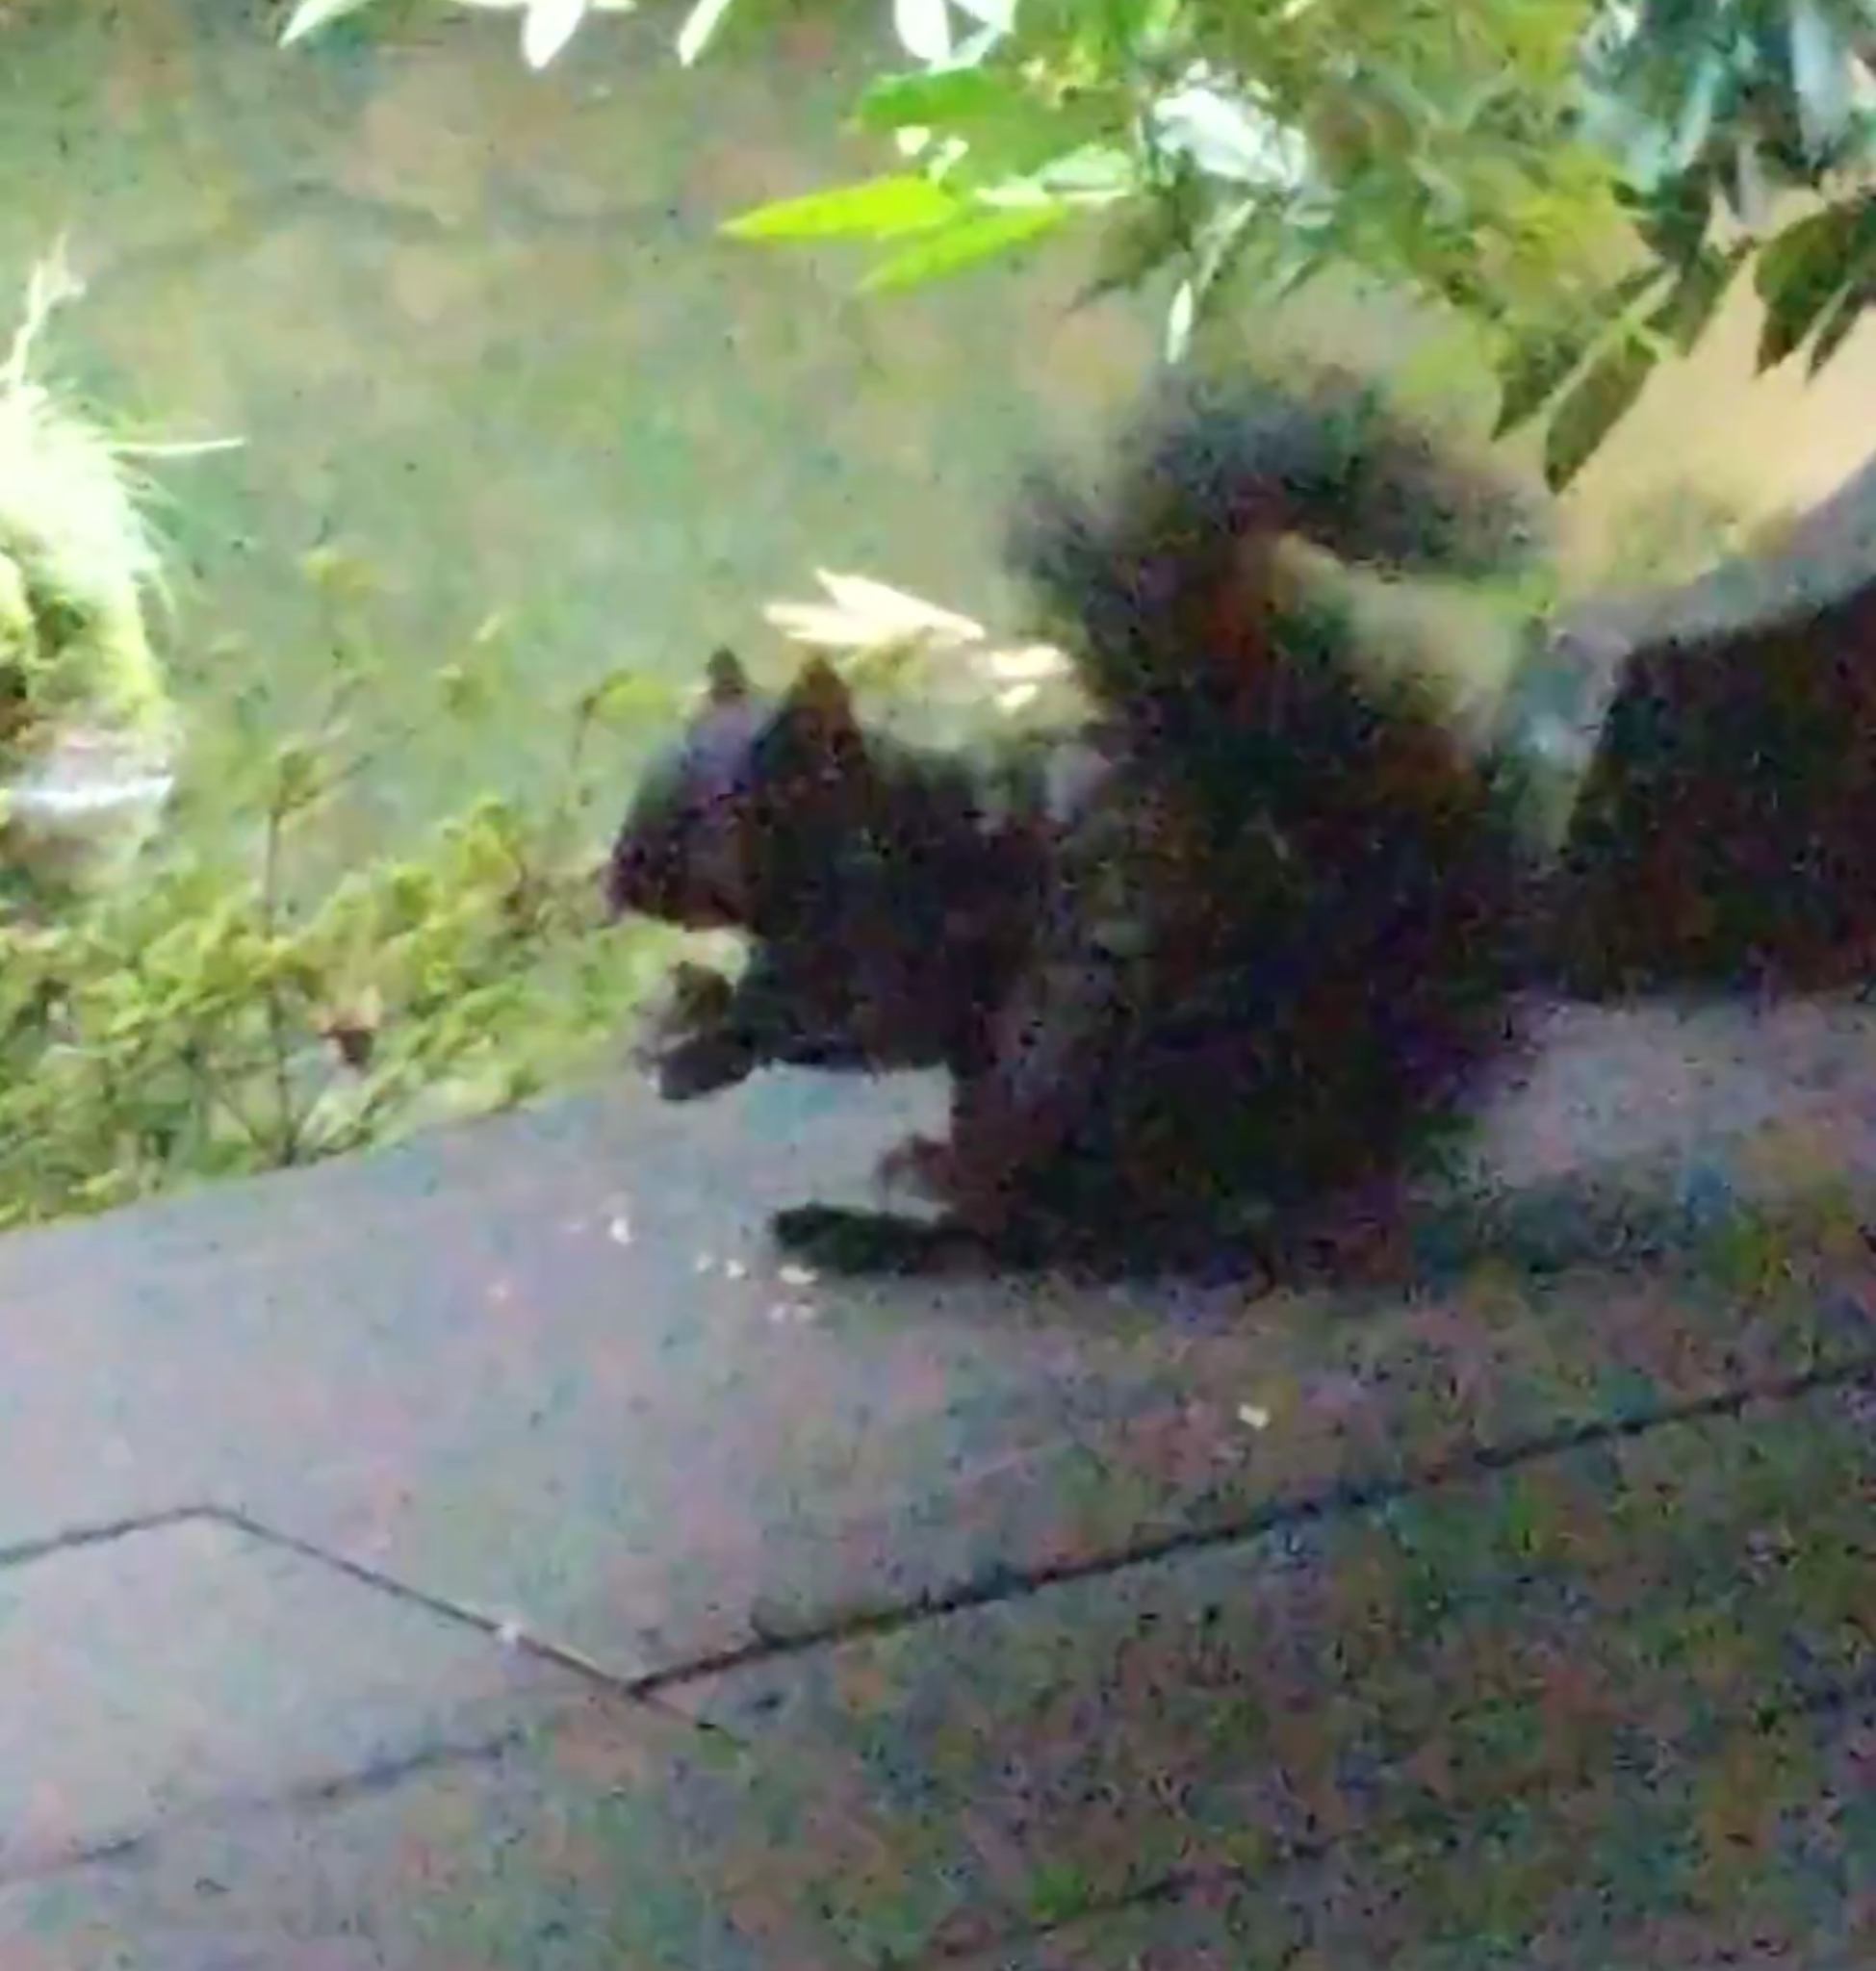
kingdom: Animalia
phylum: Chordata
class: Mammalia
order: Rodentia
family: Sciuridae
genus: Sciurus
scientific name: Sciurus carolinensis
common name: Eastern gray squirrel
